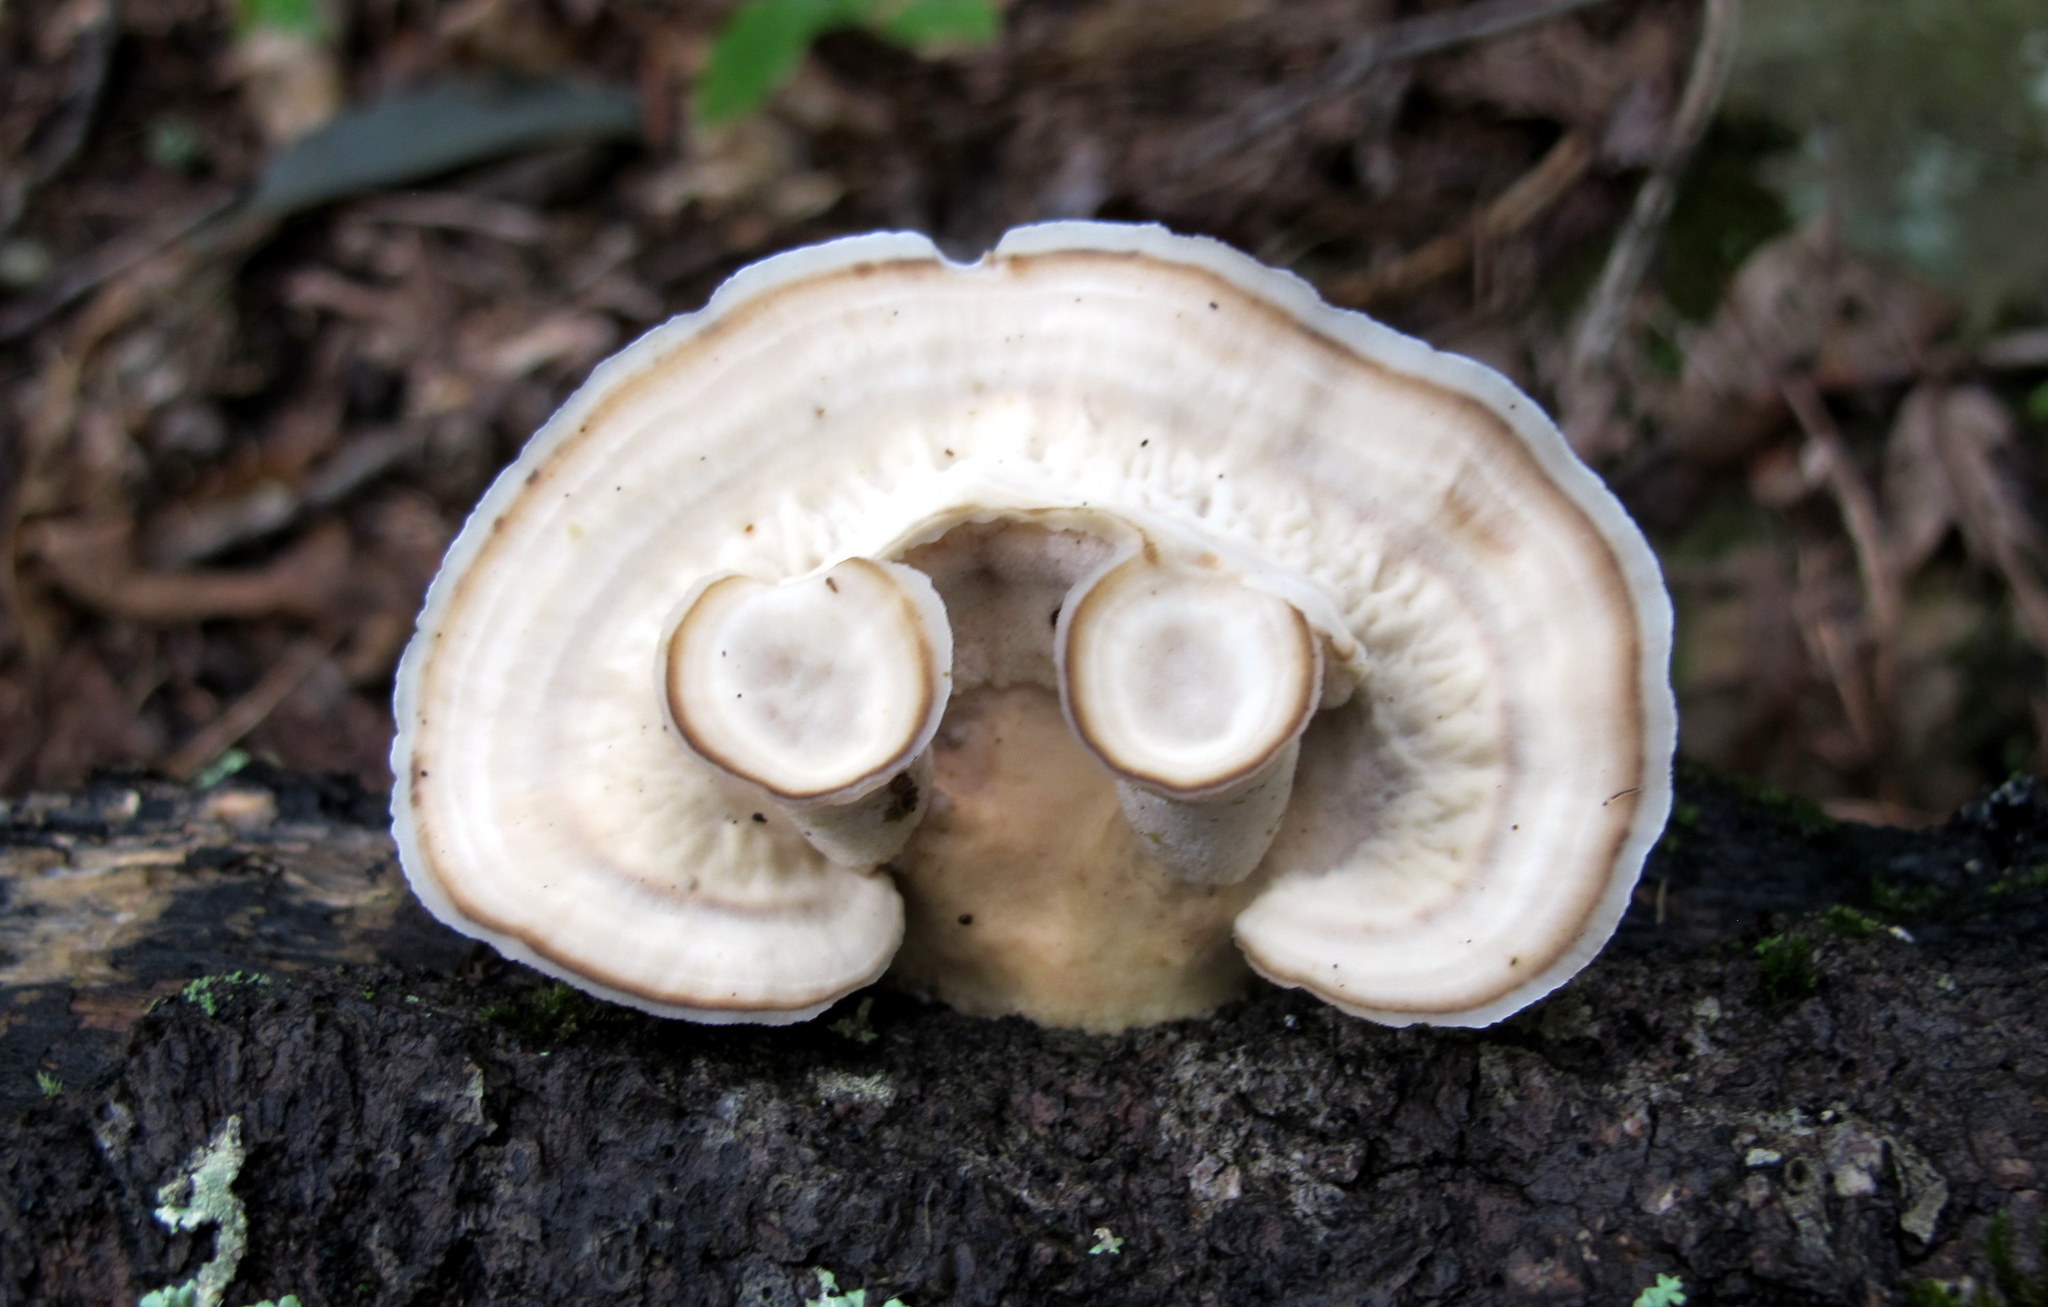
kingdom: Fungi
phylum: Basidiomycota
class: Agaricomycetes
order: Polyporales
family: Steccherinaceae
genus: Mycorrhaphium
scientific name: Mycorrhaphium adustum
